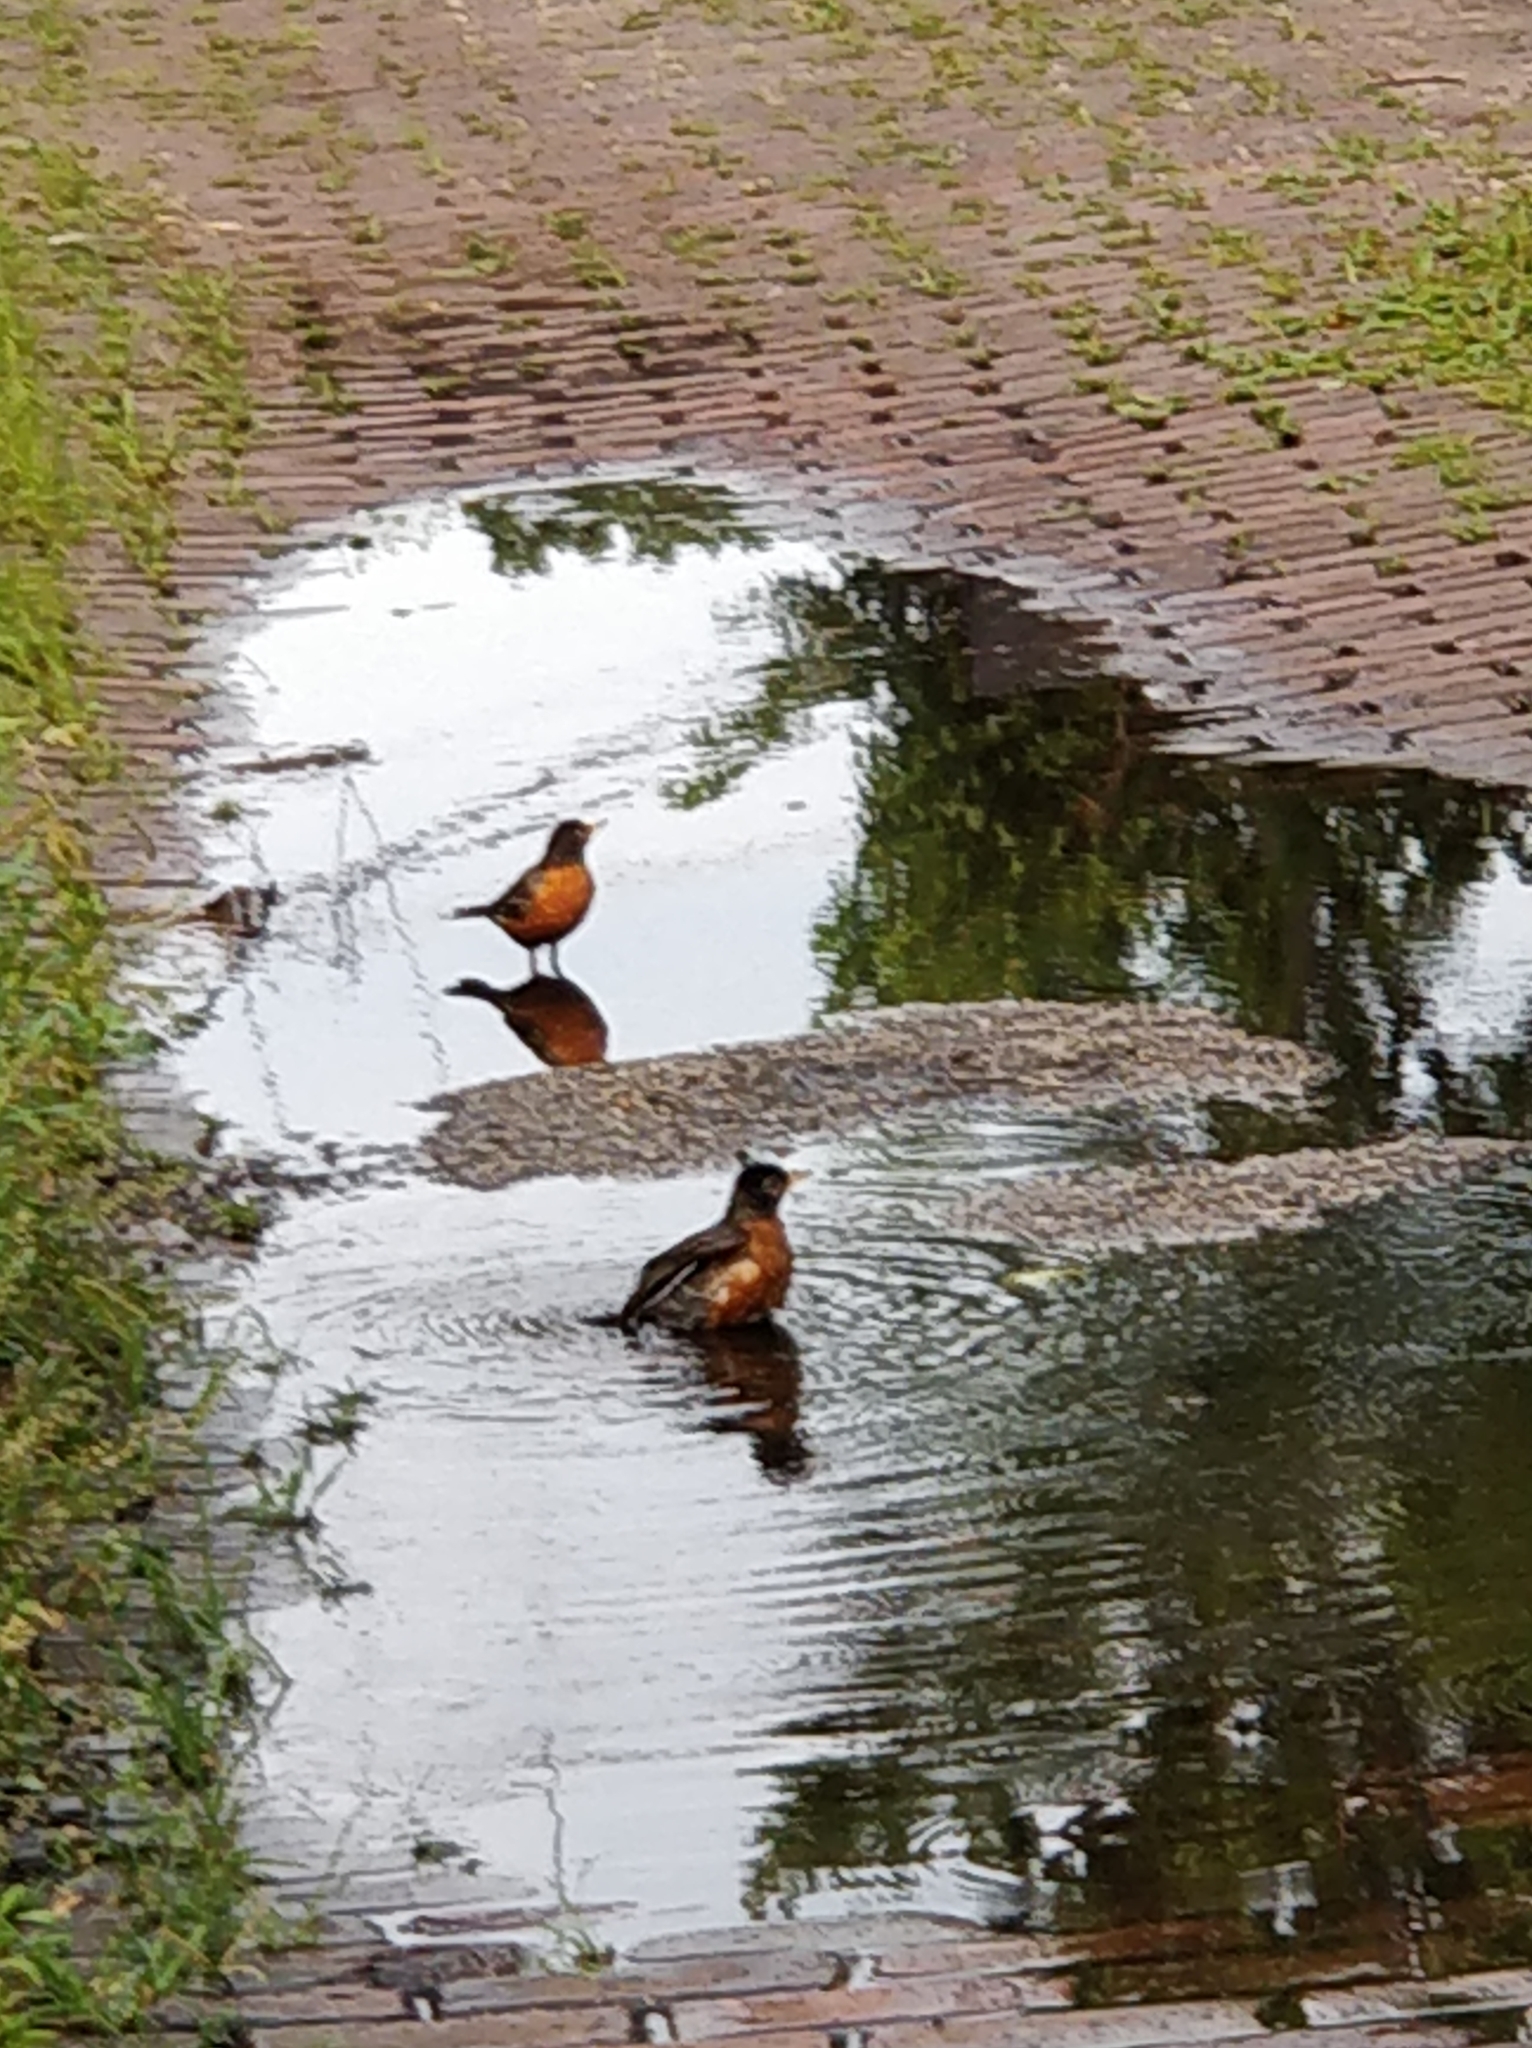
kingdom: Animalia
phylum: Chordata
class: Aves
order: Passeriformes
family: Turdidae
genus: Turdus
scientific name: Turdus migratorius
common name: American robin
